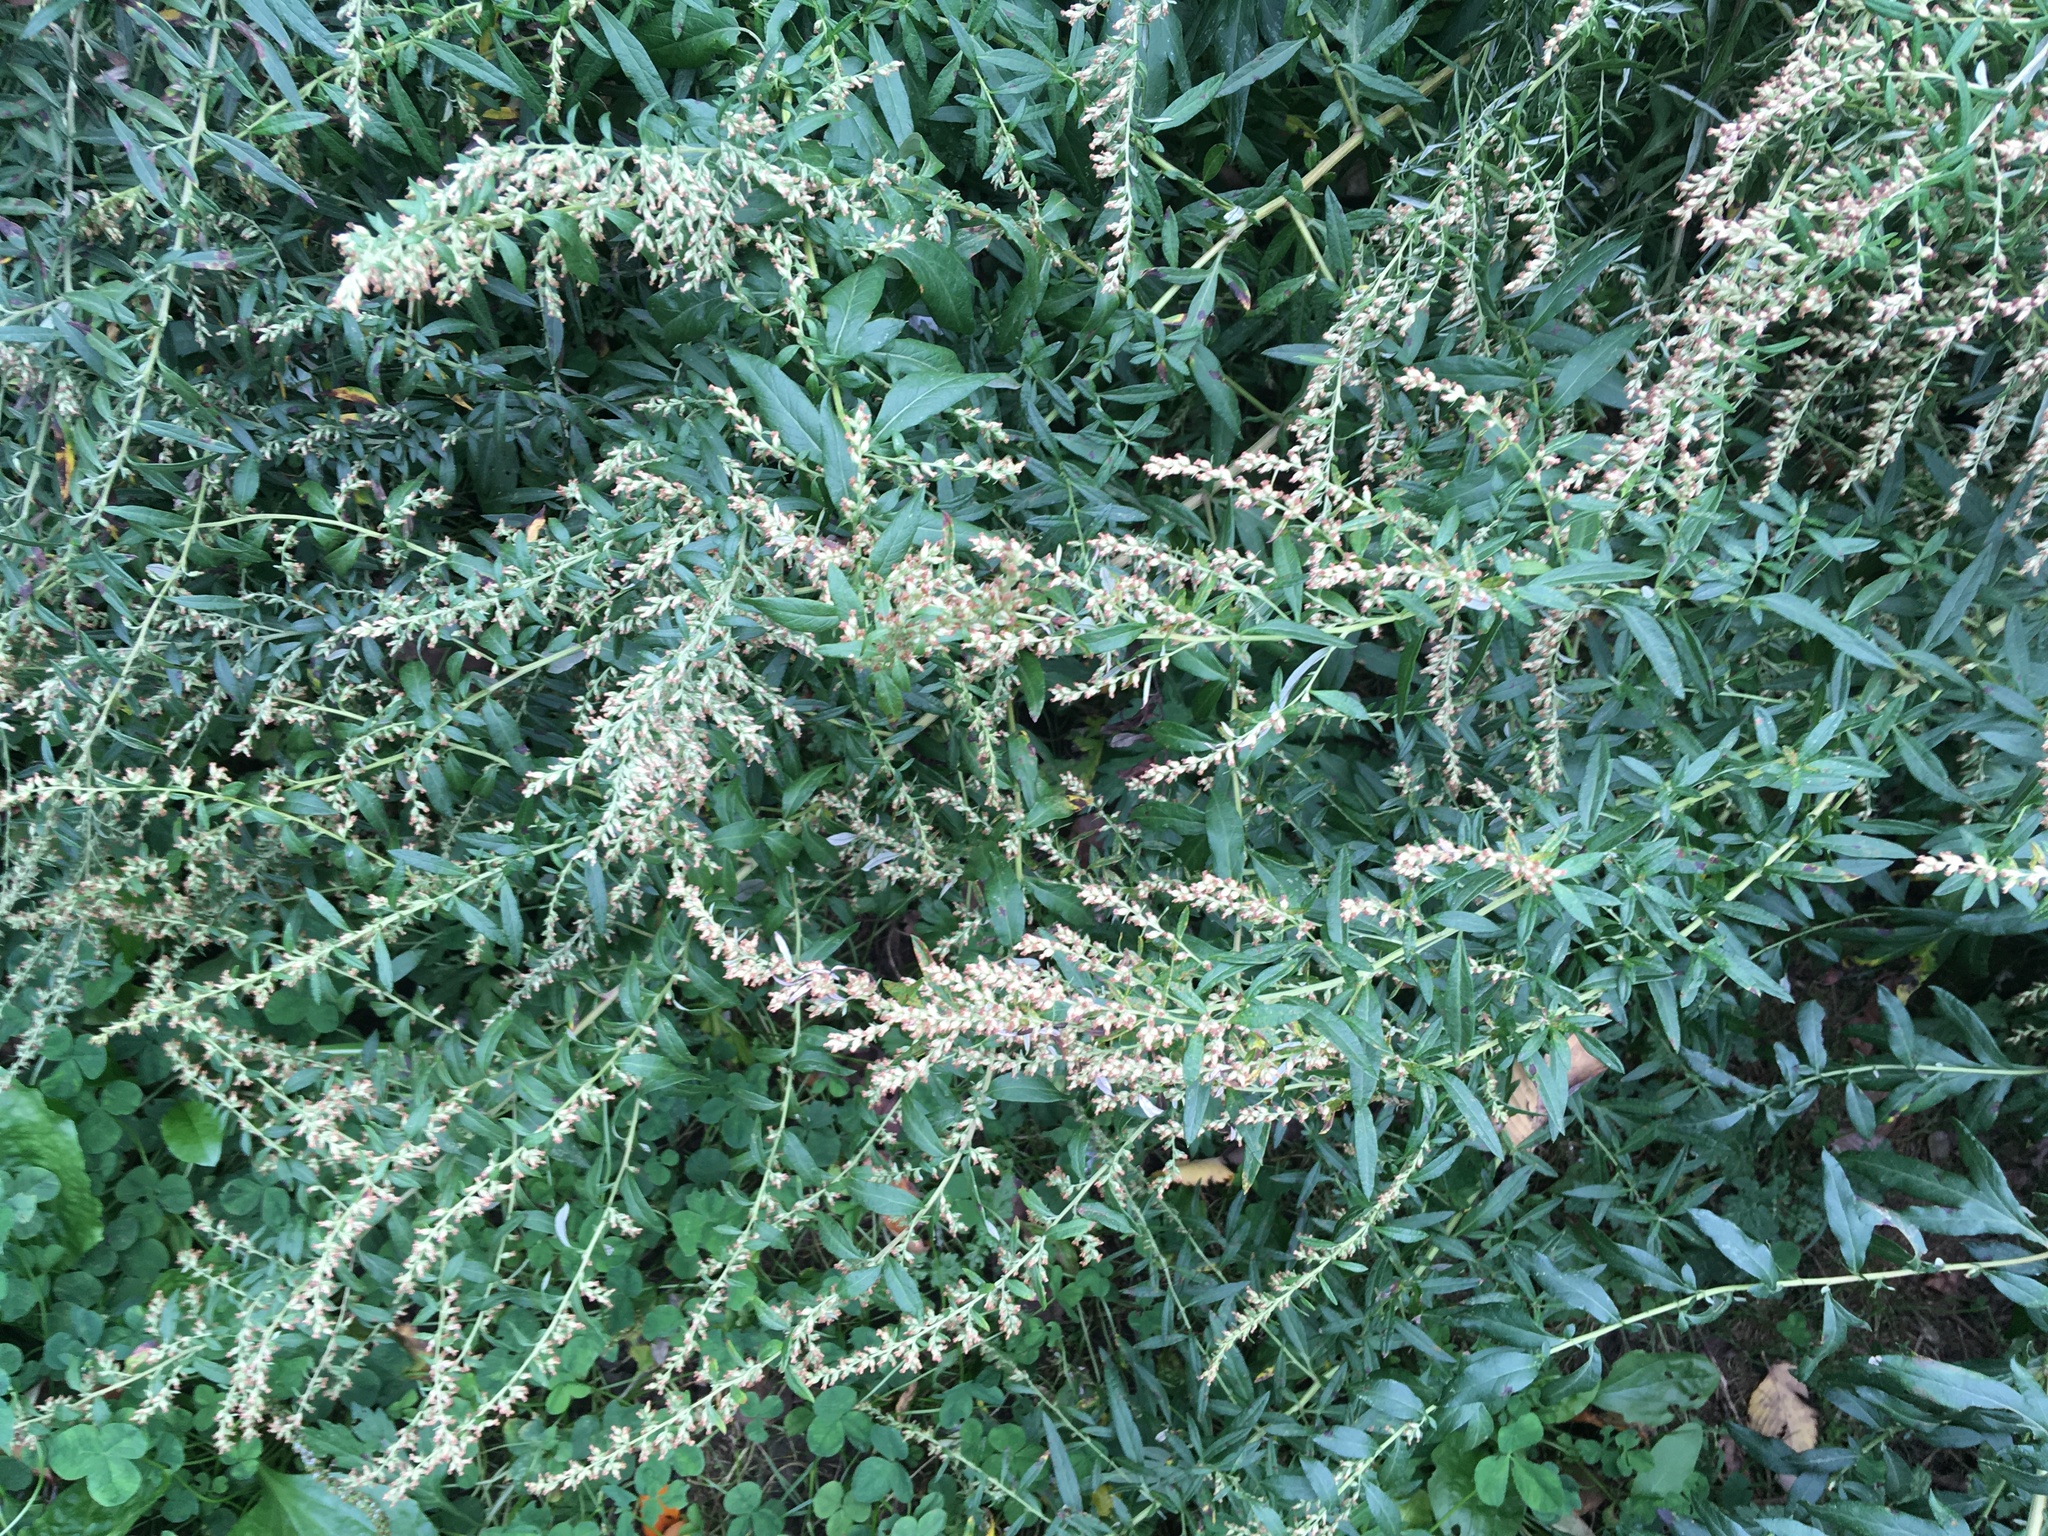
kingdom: Plantae
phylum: Tracheophyta
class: Magnoliopsida
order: Asterales
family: Asteraceae
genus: Artemisia
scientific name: Artemisia vulgaris
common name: Mugwort
